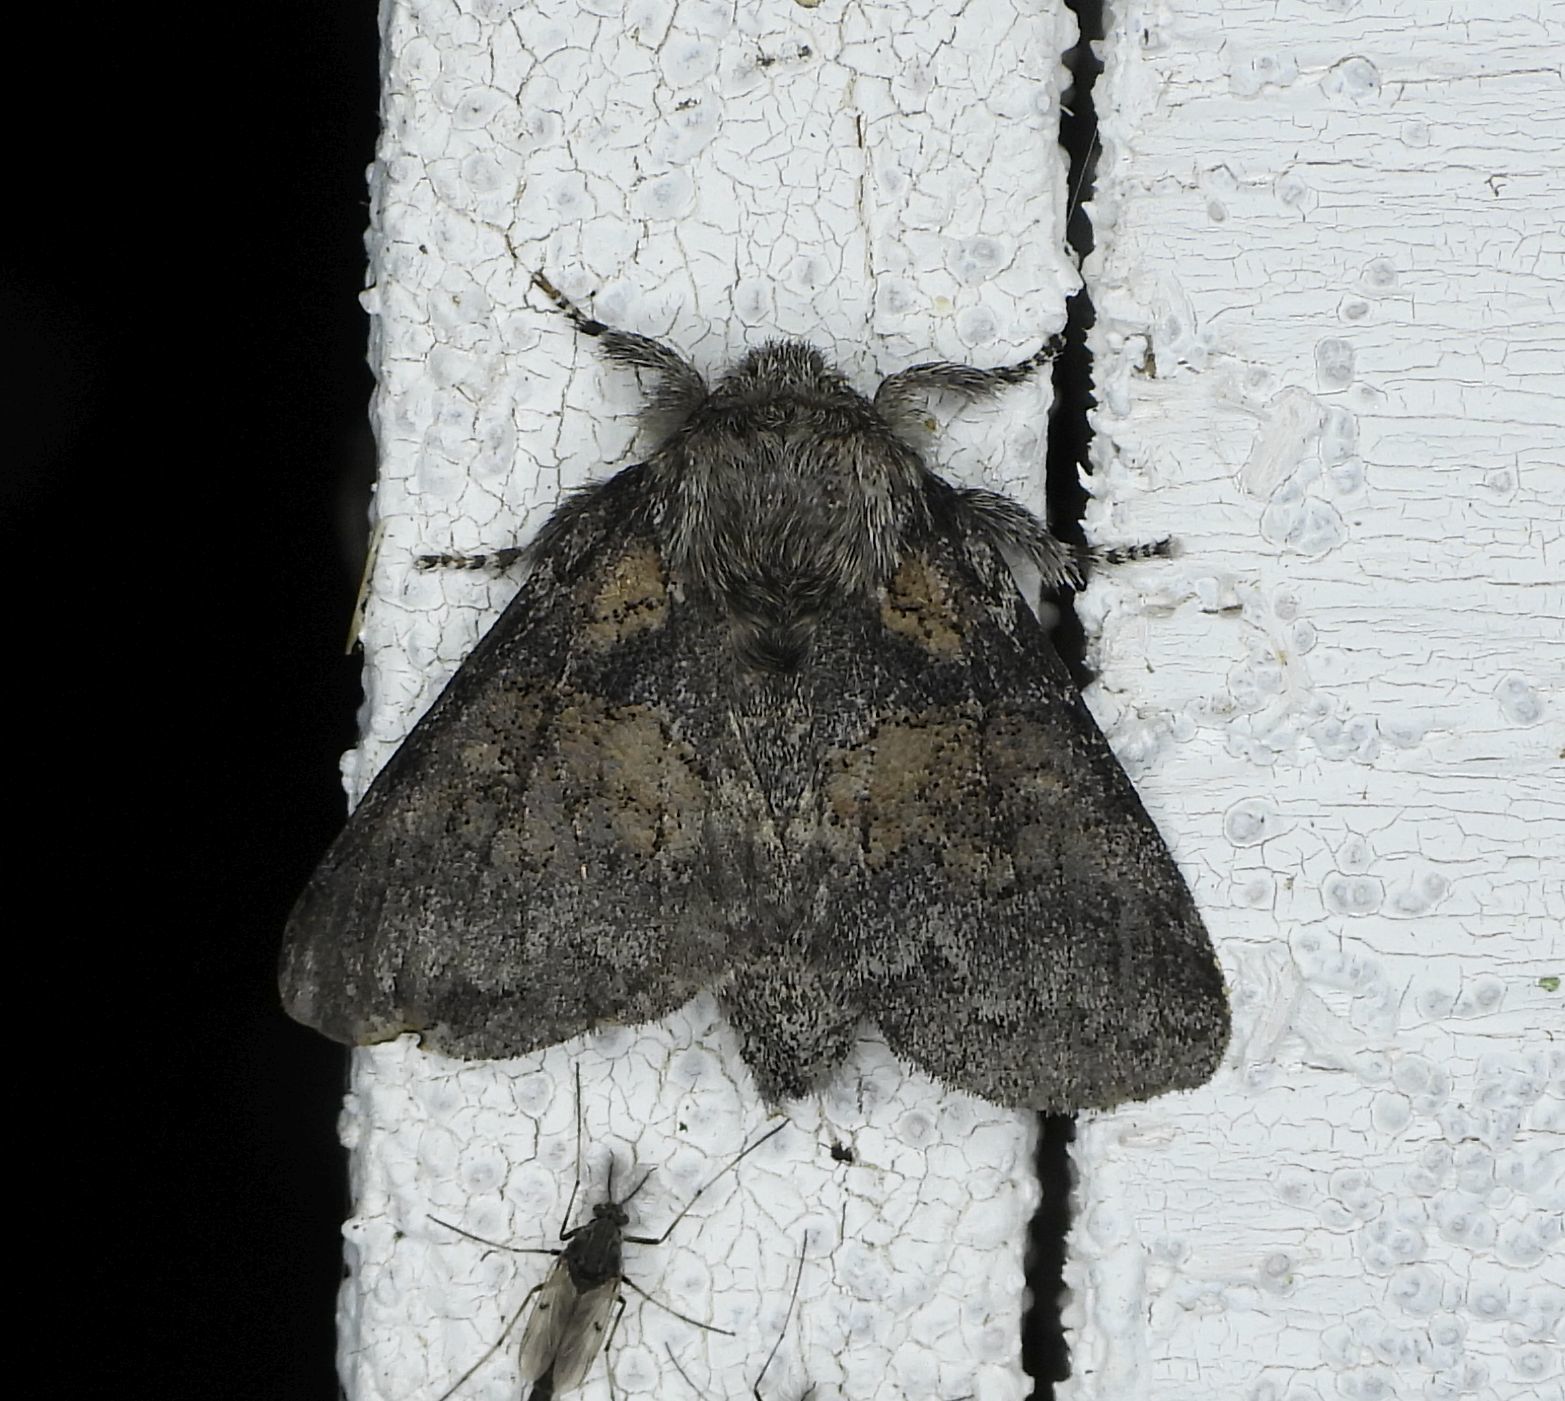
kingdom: Animalia
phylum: Arthropoda
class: Insecta
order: Lepidoptera
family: Notodontidae
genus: Gluphisia
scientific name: Gluphisia septentrionis
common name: Common gluphisia
